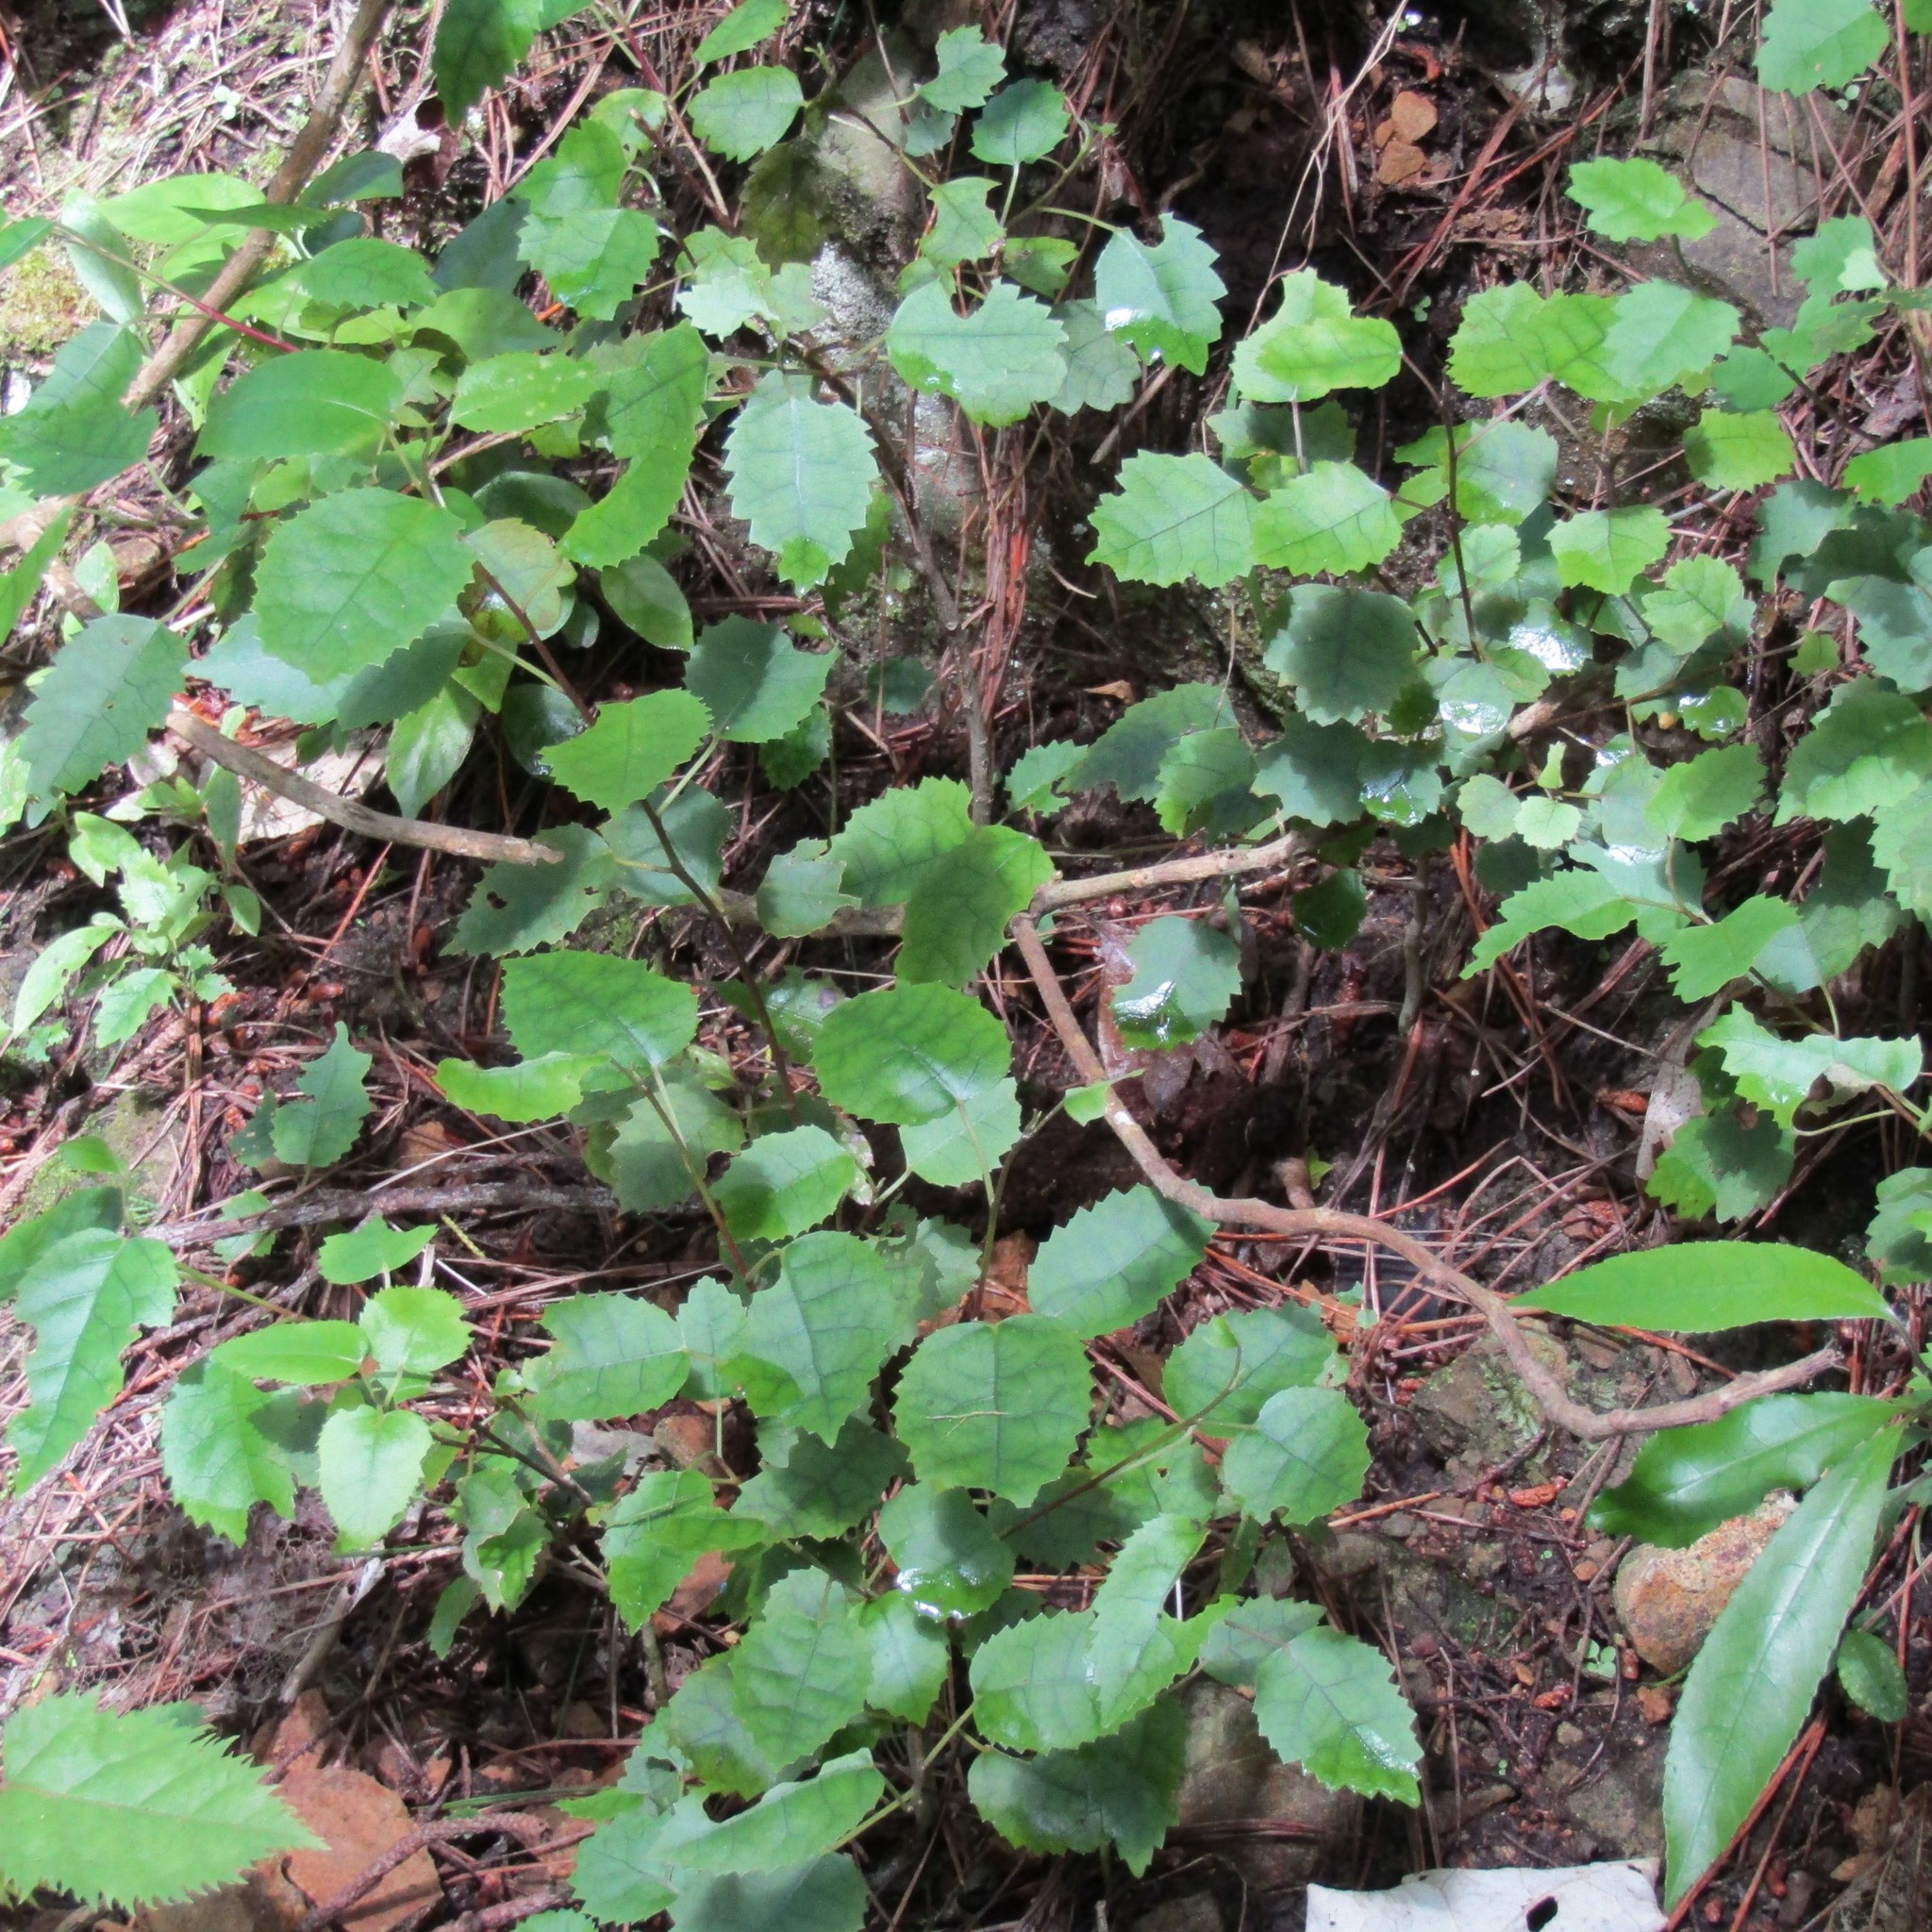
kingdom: Plantae
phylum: Tracheophyta
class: Magnoliopsida
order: Malvales
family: Malvaceae
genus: Hoheria
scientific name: Hoheria populnea
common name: Lacebark
